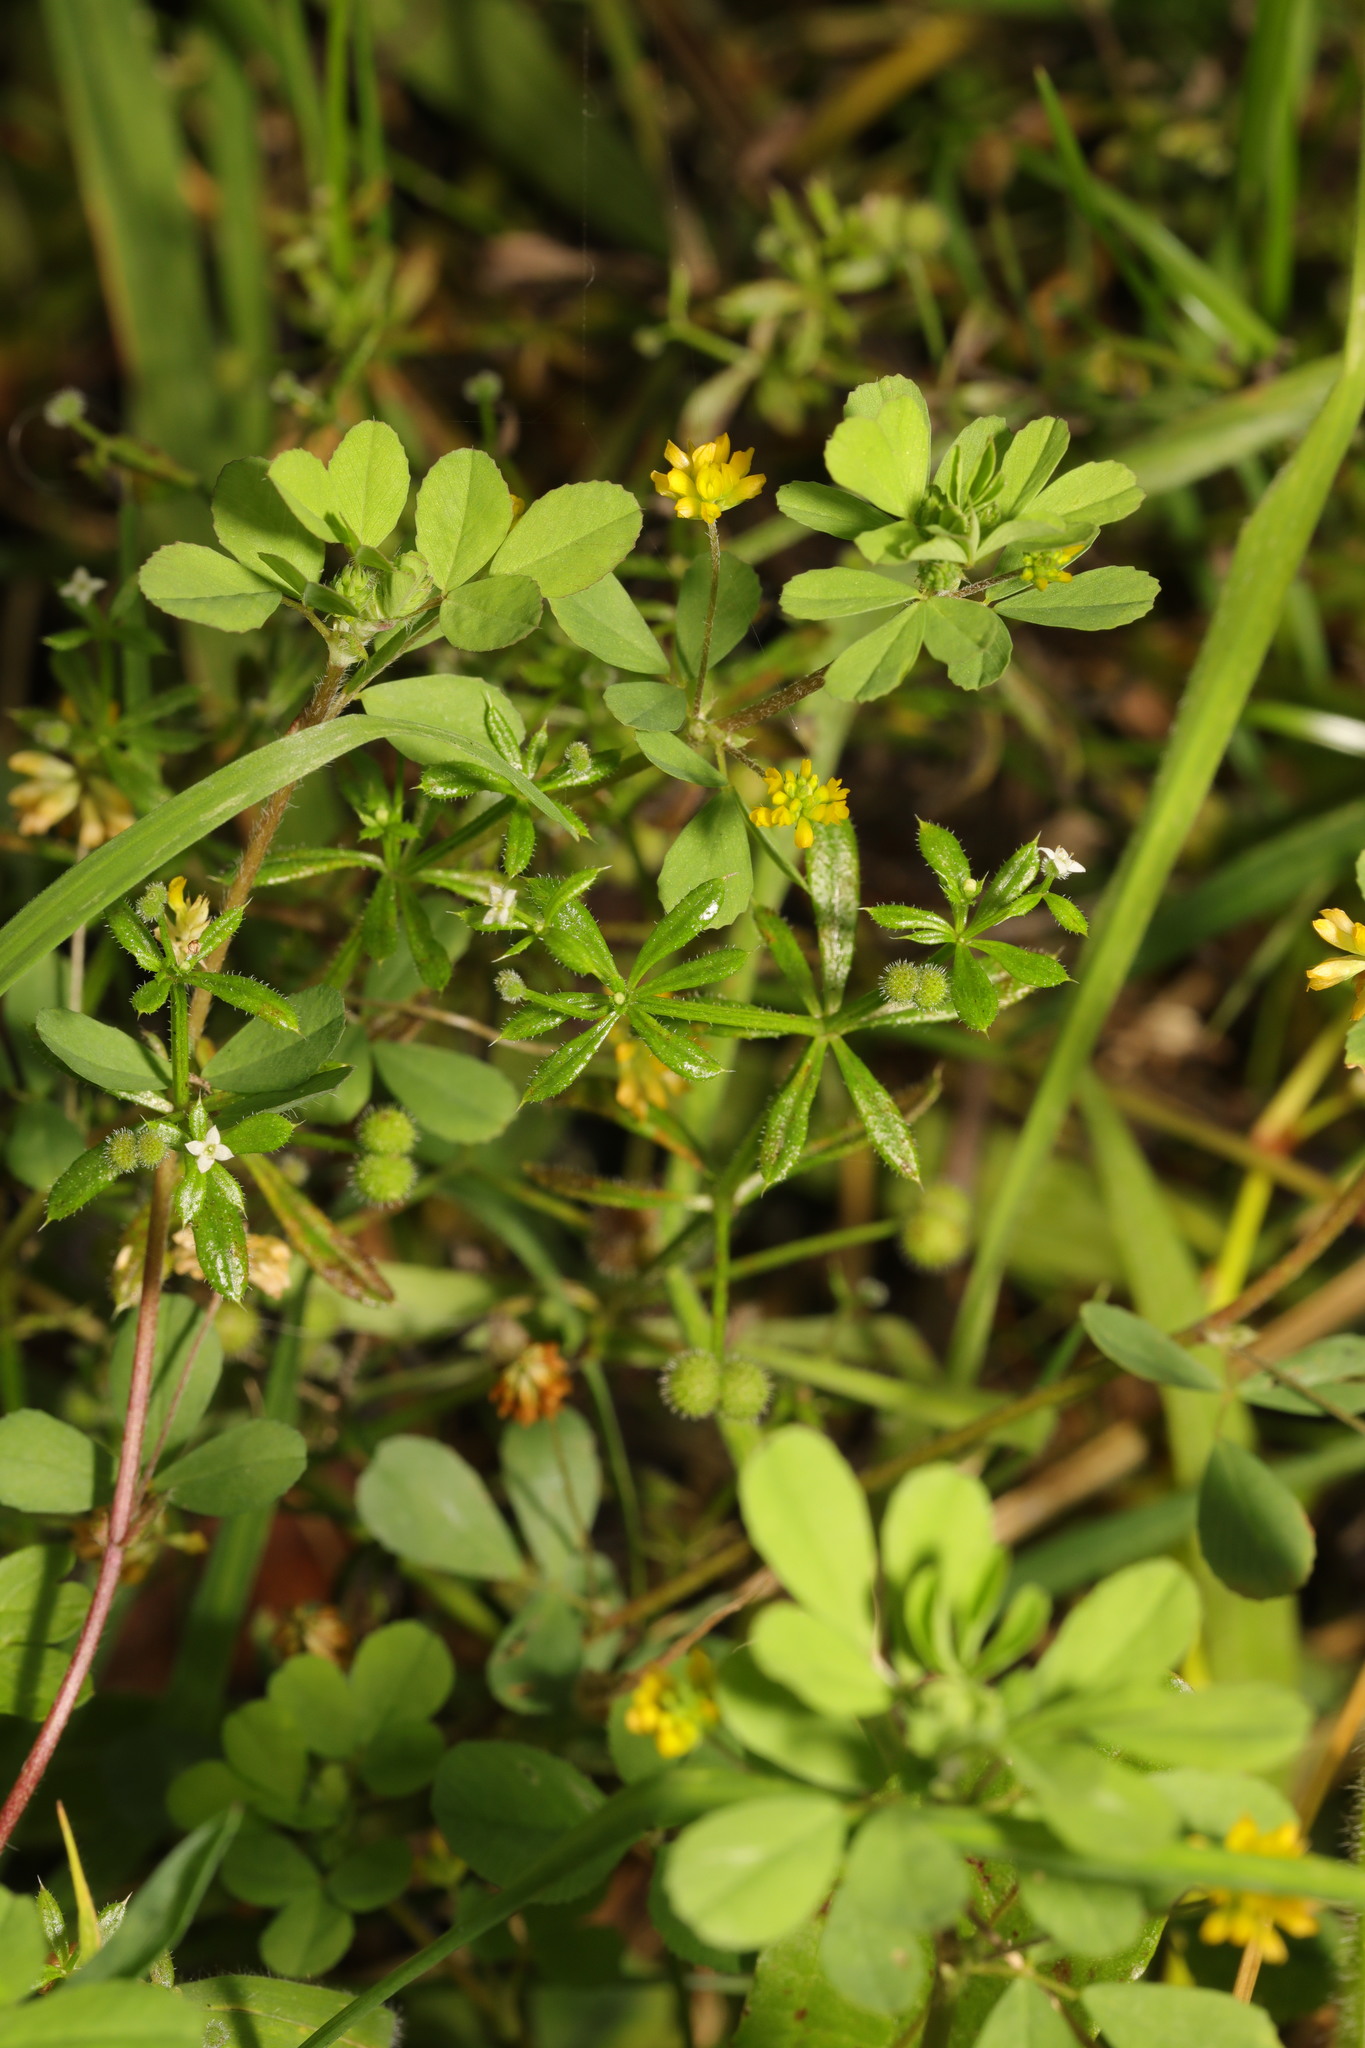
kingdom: Plantae
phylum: Tracheophyta
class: Magnoliopsida
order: Fabales
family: Fabaceae
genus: Trifolium
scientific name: Trifolium dubium
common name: Suckling clover
